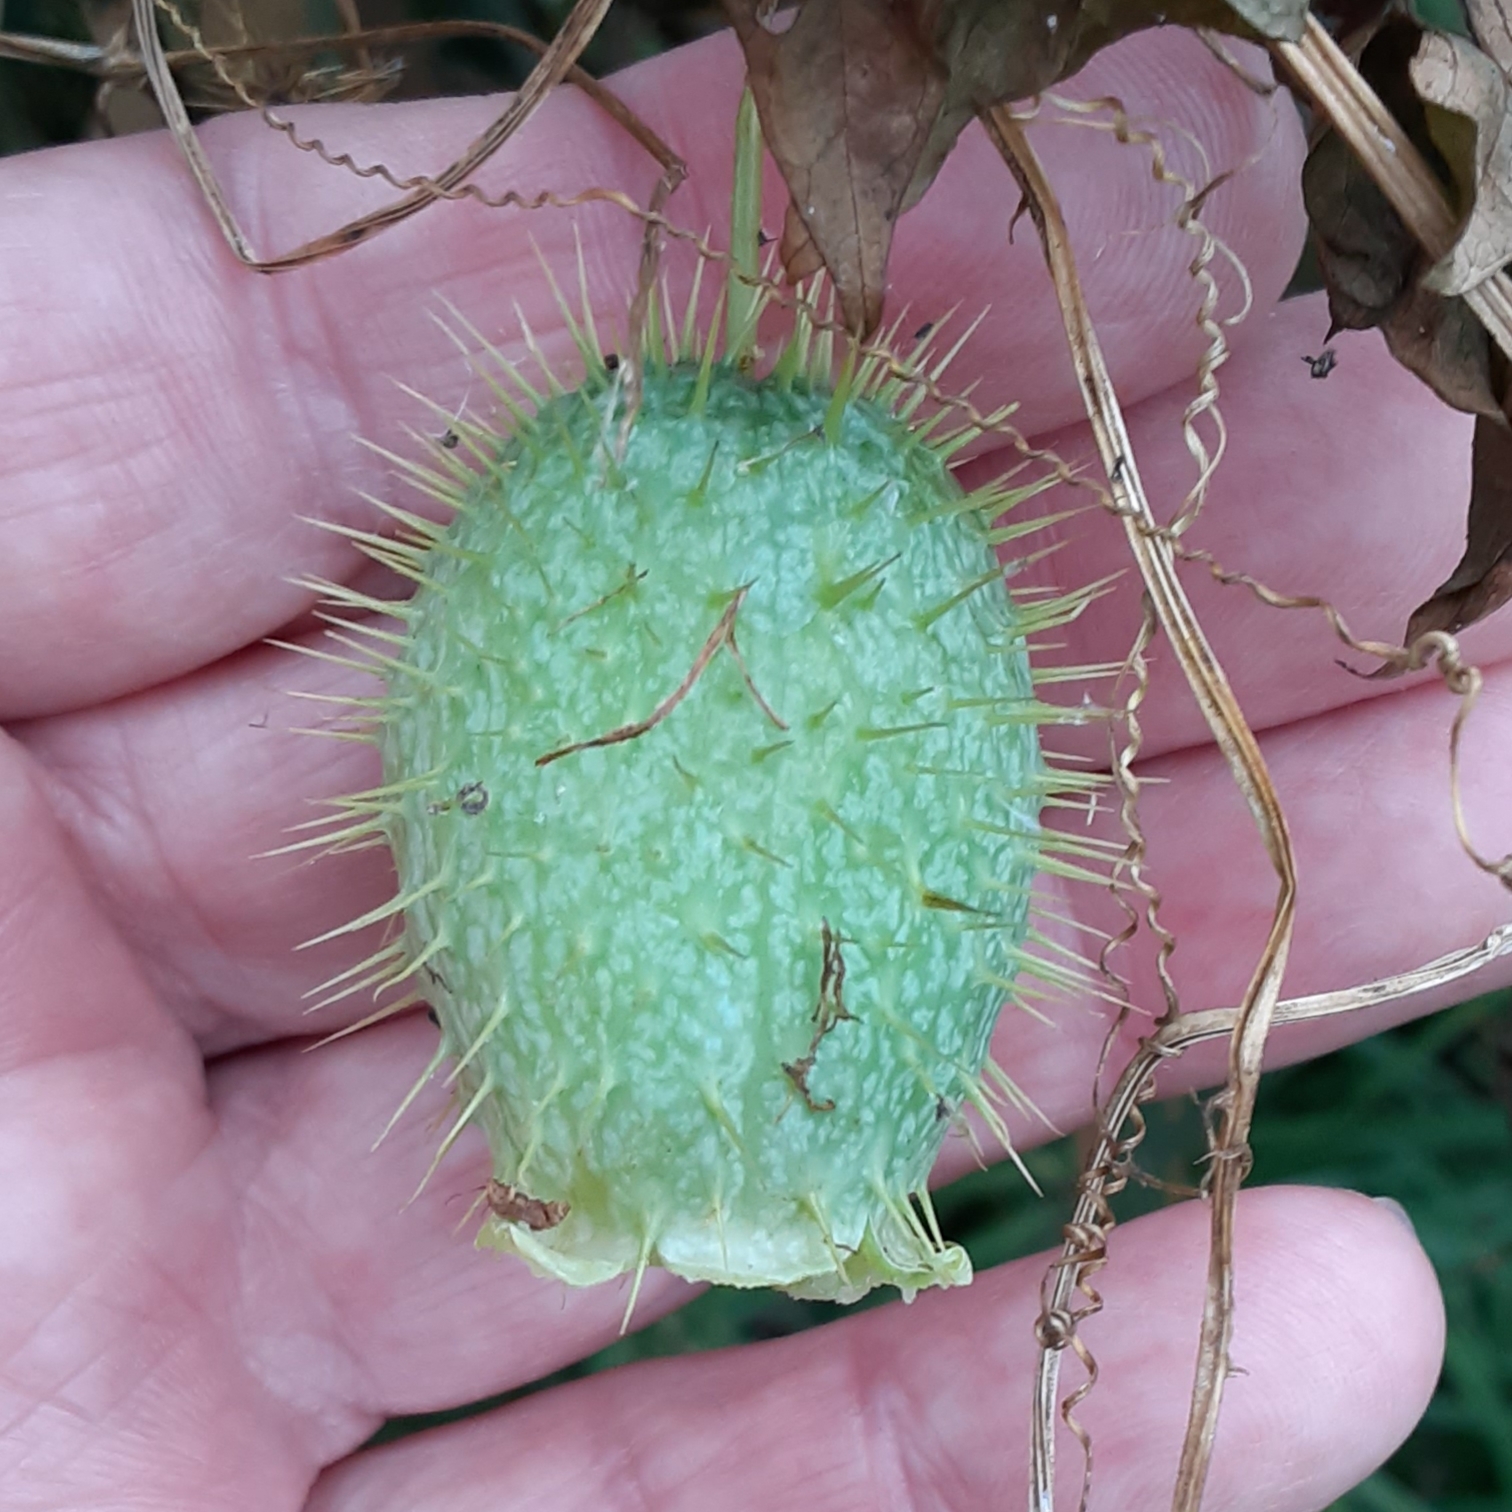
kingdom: Plantae
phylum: Tracheophyta
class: Magnoliopsida
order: Cucurbitales
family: Cucurbitaceae
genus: Echinocystis
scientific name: Echinocystis lobata
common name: Wild cucumber
